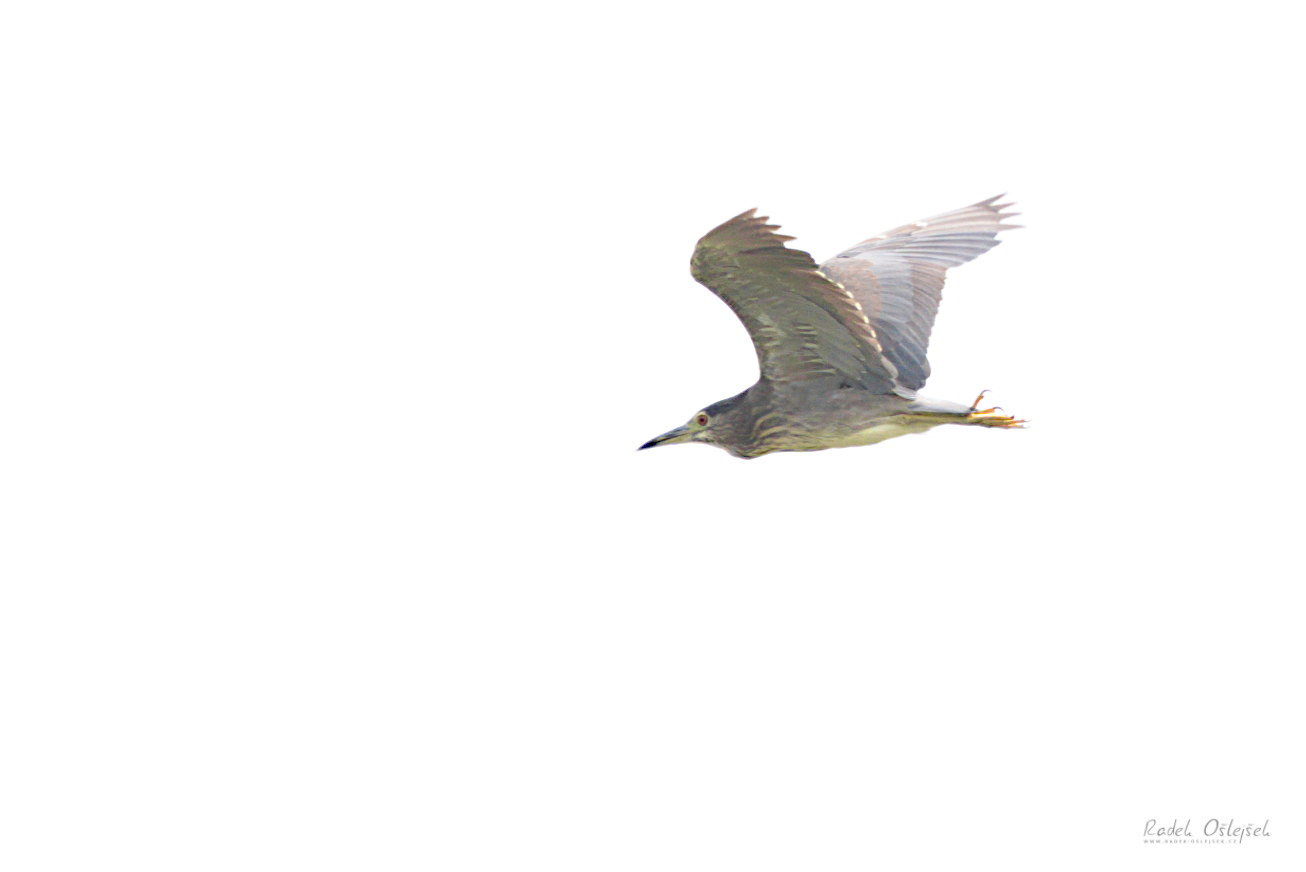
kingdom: Animalia
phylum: Chordata
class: Aves
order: Pelecaniformes
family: Ardeidae
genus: Nycticorax
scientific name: Nycticorax nycticorax
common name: Black-crowned night heron
